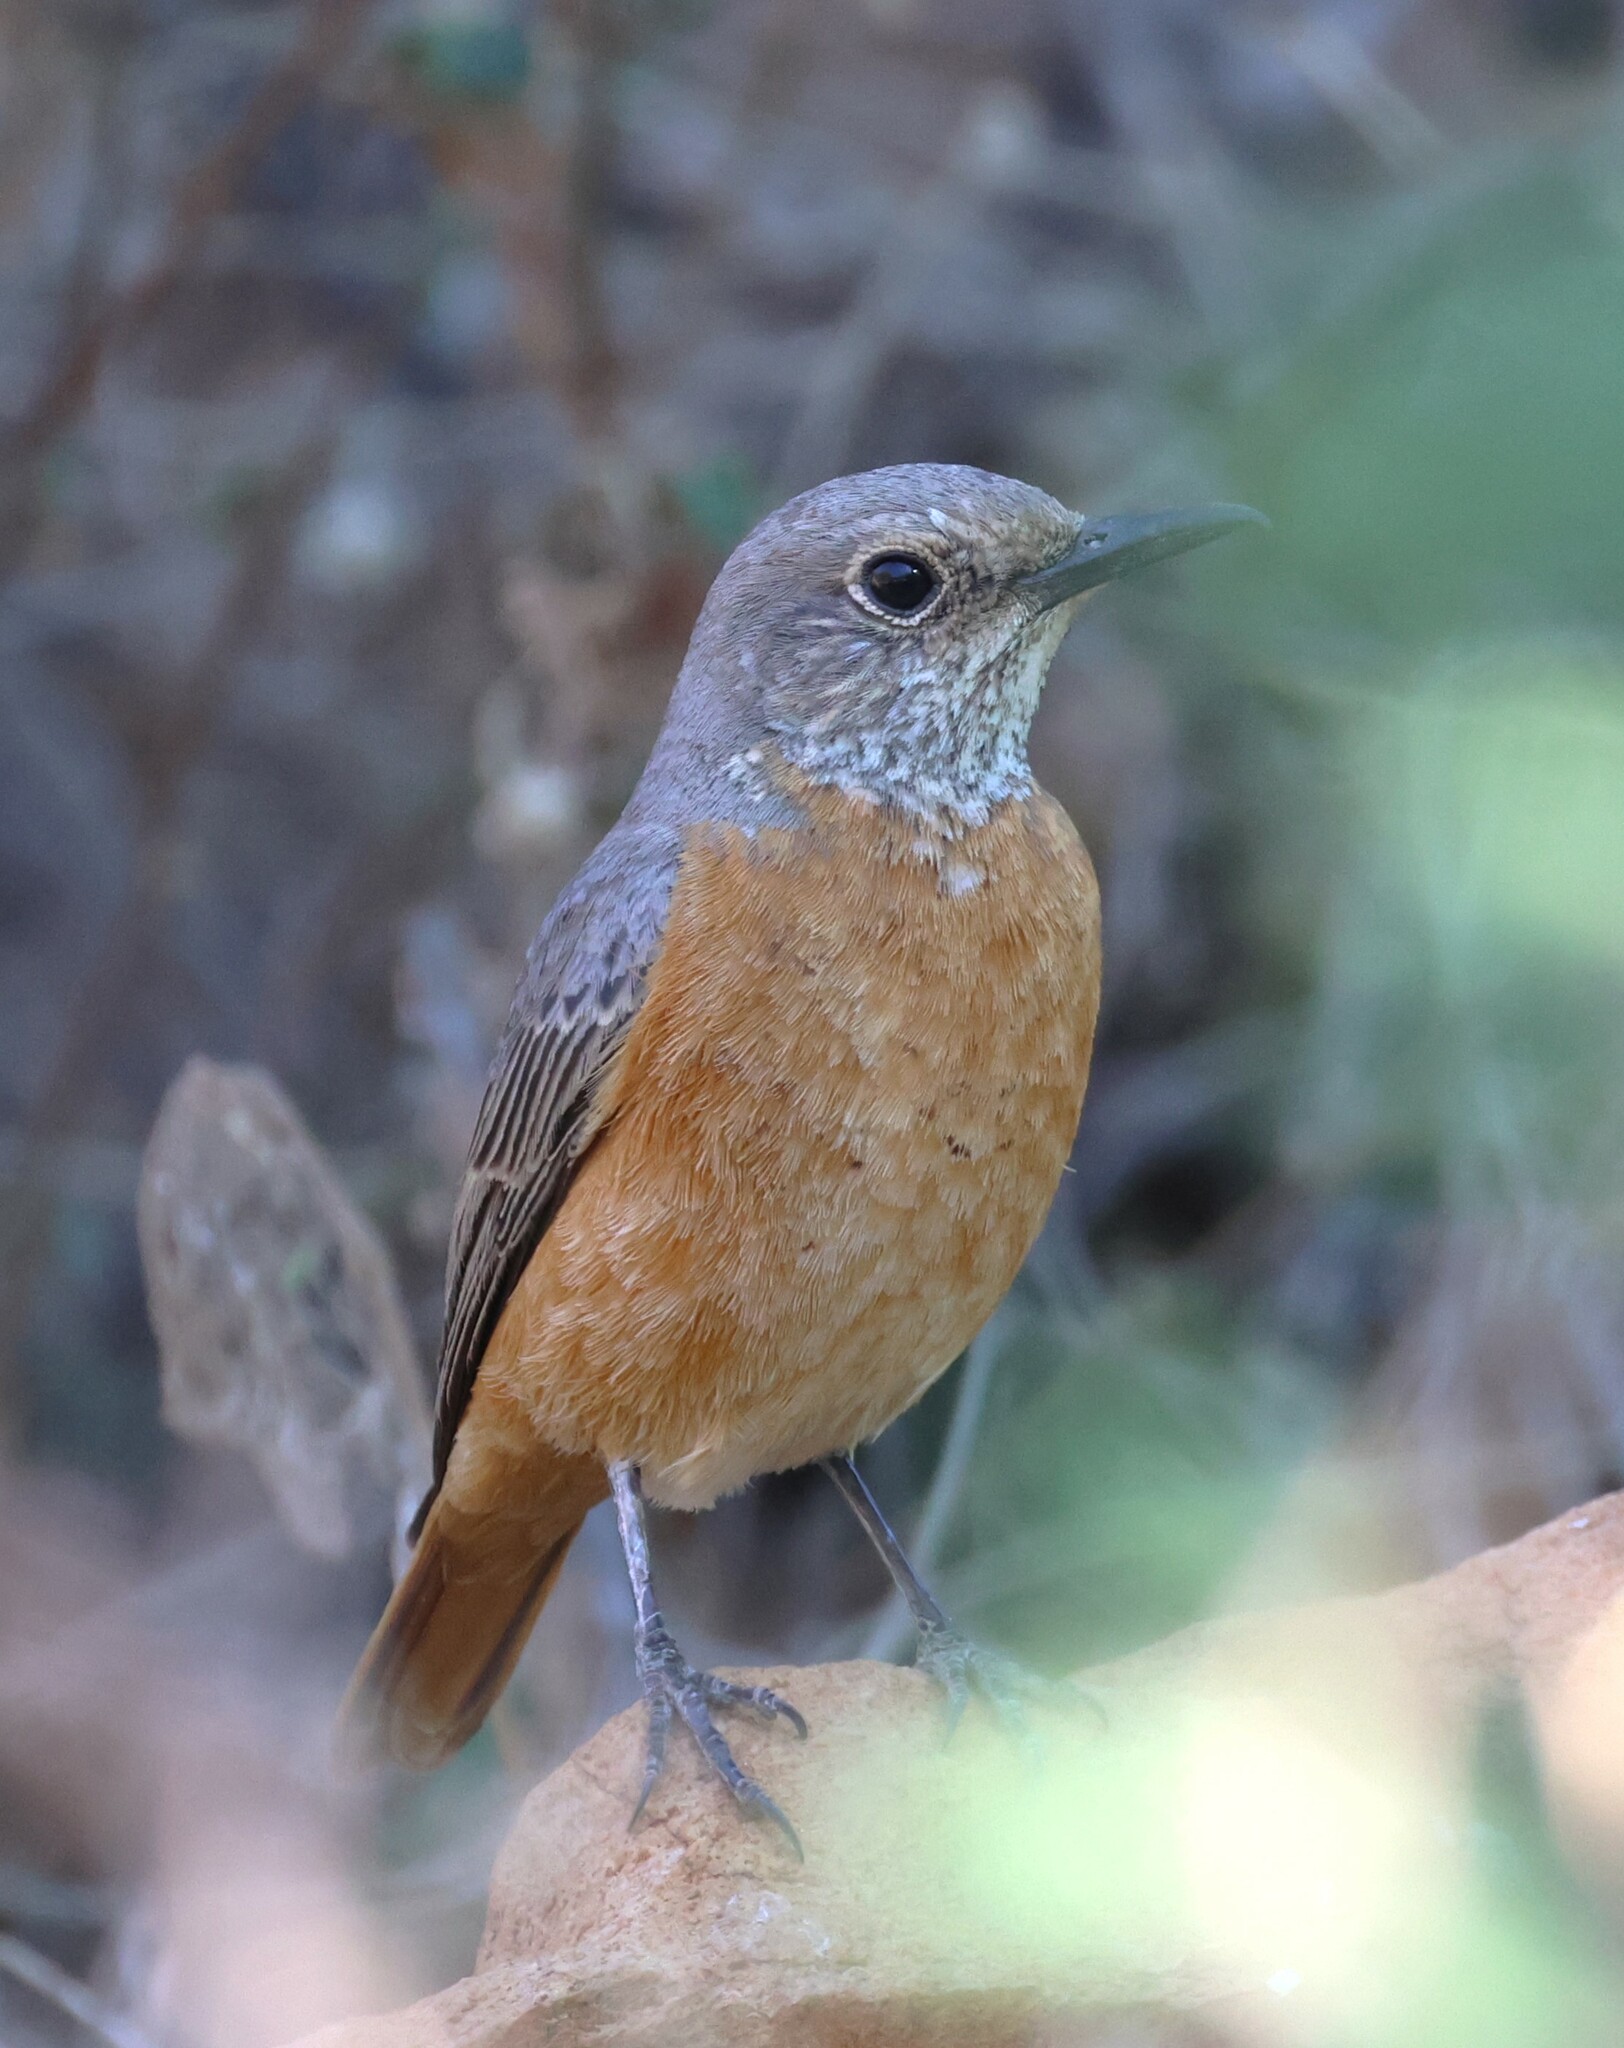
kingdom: Animalia
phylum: Chordata
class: Aves
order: Passeriformes
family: Muscicapidae
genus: Monticola
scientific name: Monticola brevipes
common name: Short-toed rock thrush
